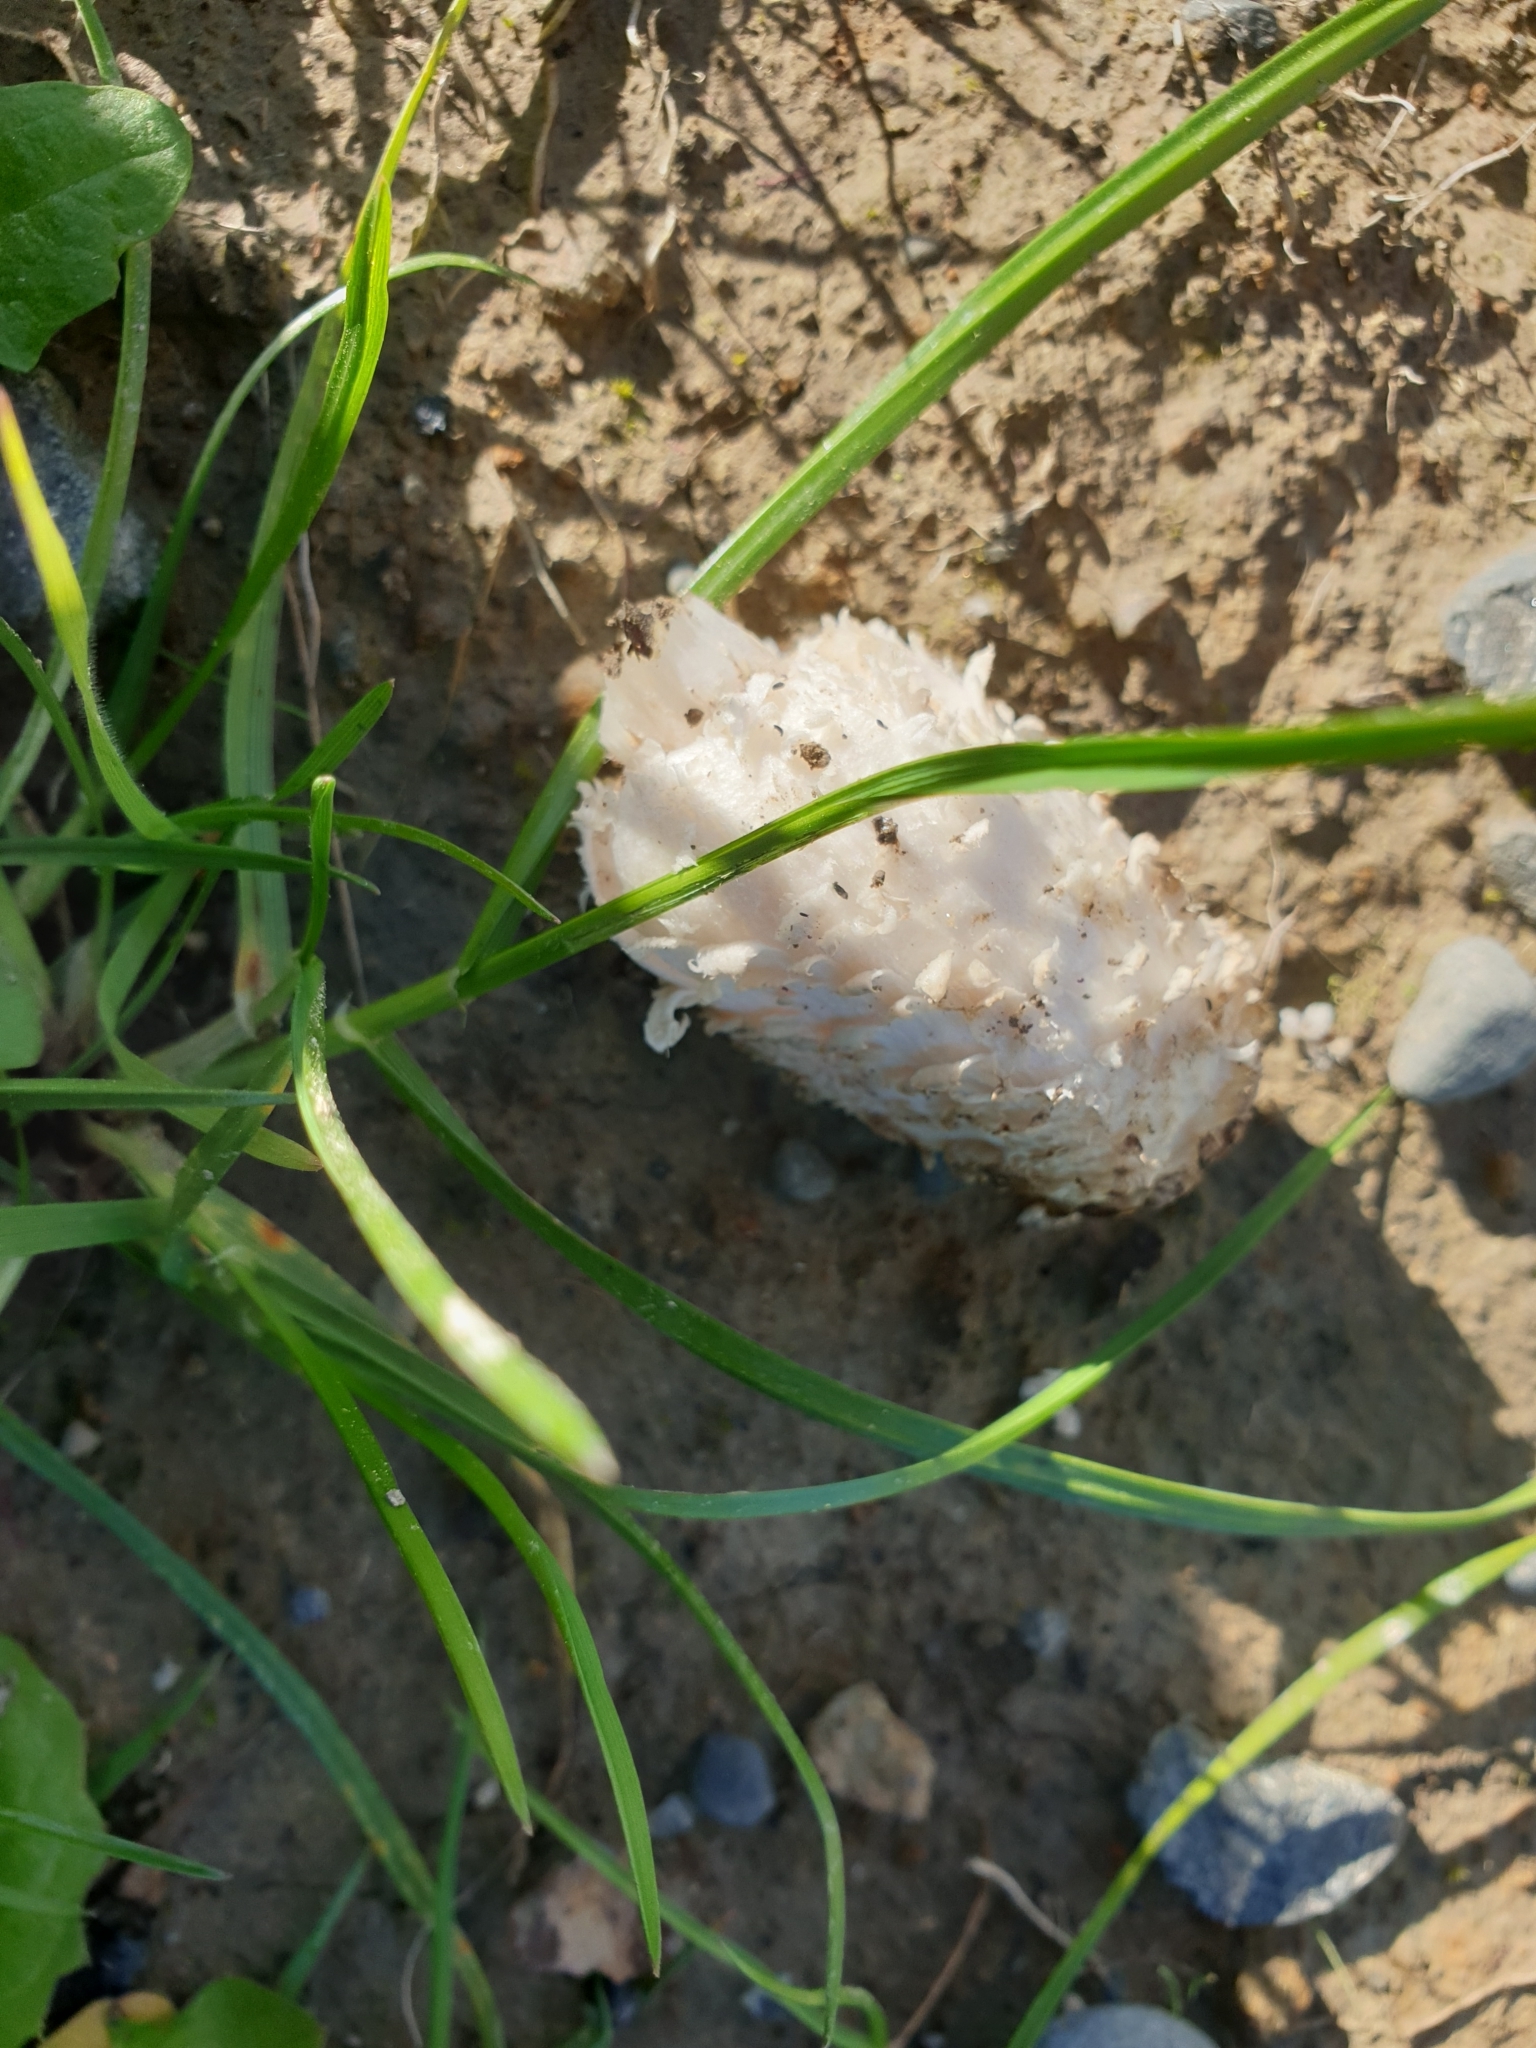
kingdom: Fungi
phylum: Basidiomycota
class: Agaricomycetes
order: Agaricales
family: Agaricaceae
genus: Coprinus
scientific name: Coprinus comatus
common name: Lawyer's wig
